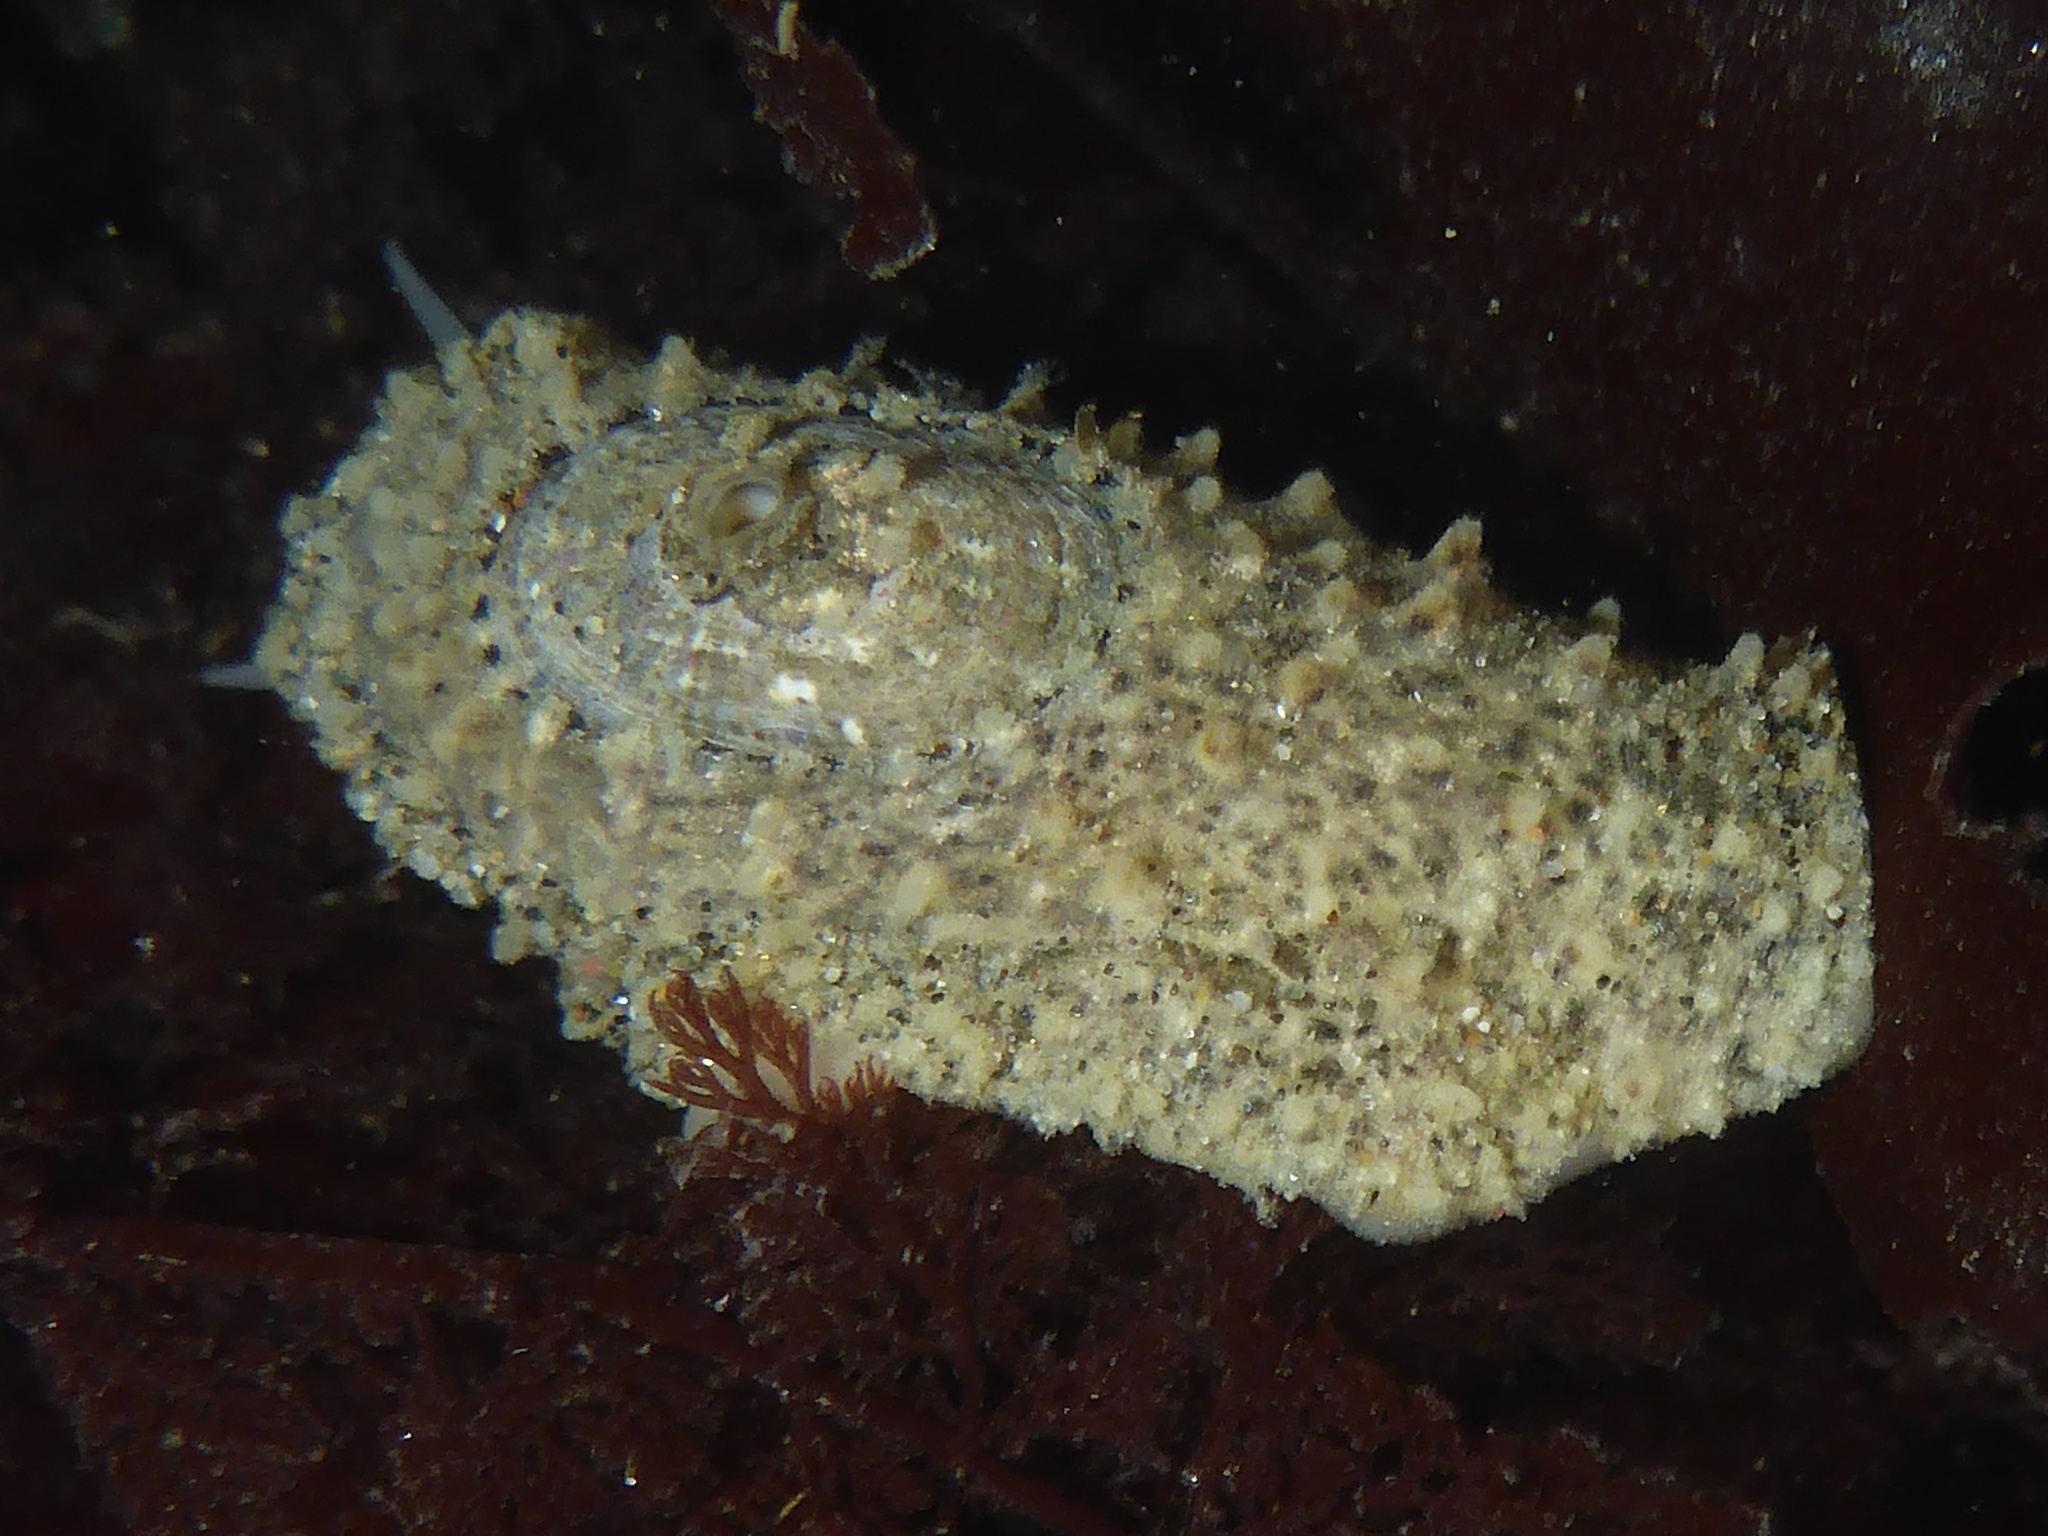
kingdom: Animalia
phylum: Mollusca
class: Gastropoda
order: Lepetellida
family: Fissurellidae
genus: Fissurellidea
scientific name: Fissurellidea bimaculata
